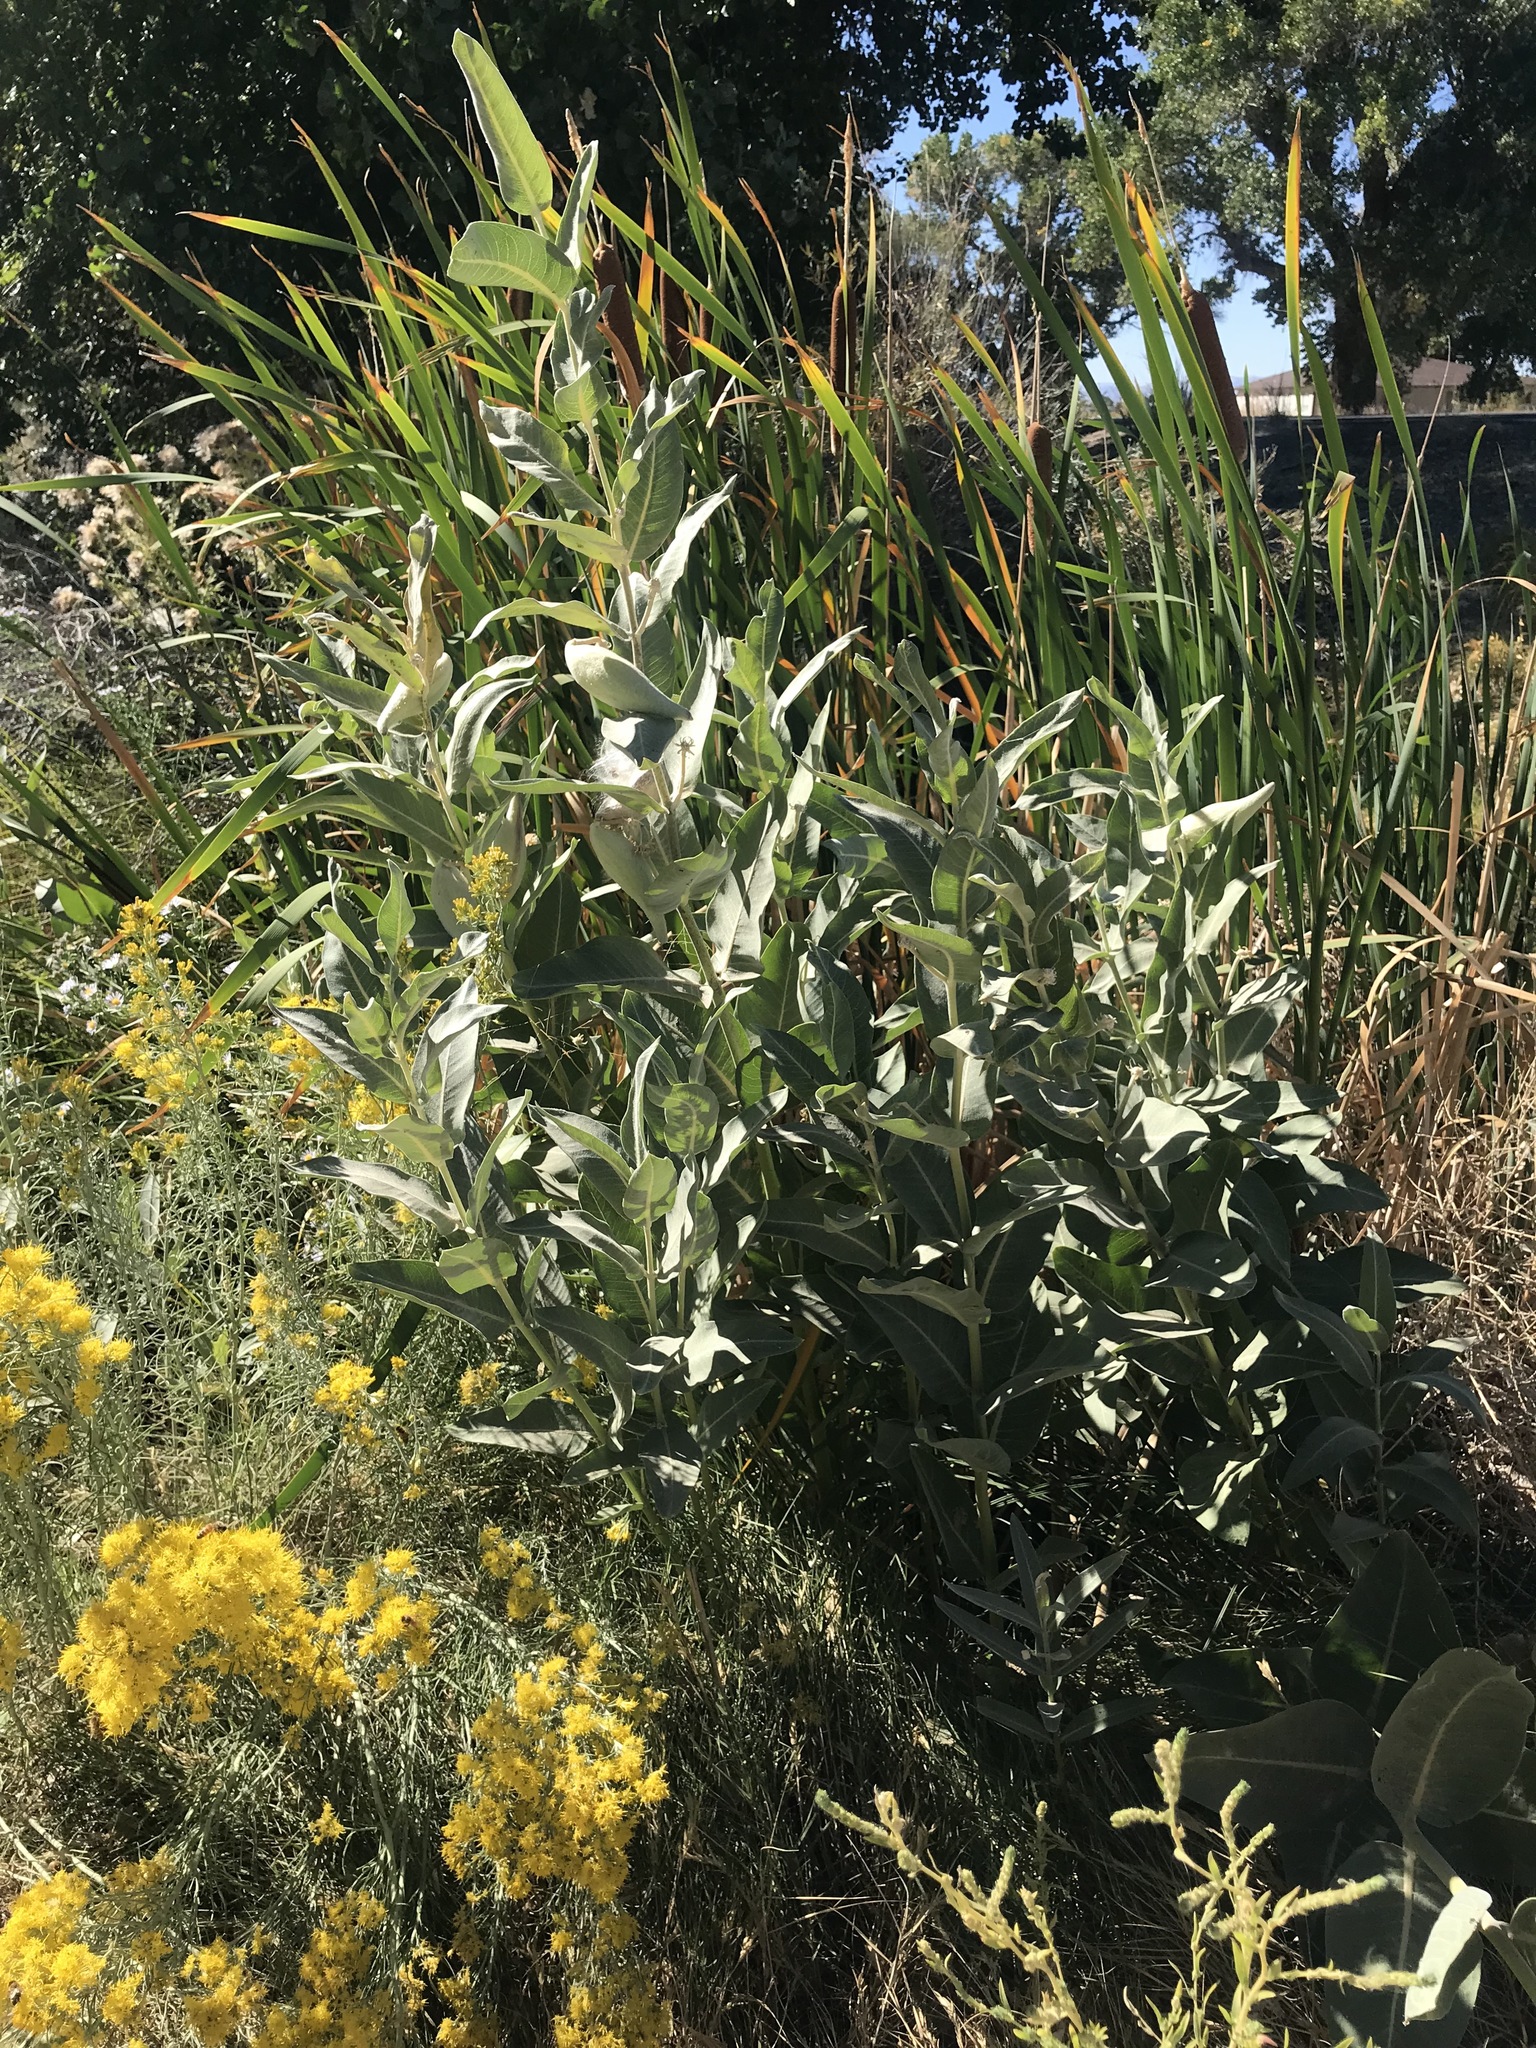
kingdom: Plantae
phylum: Tracheophyta
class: Magnoliopsida
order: Gentianales
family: Apocynaceae
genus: Asclepias
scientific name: Asclepias speciosa
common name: Showy milkweed
